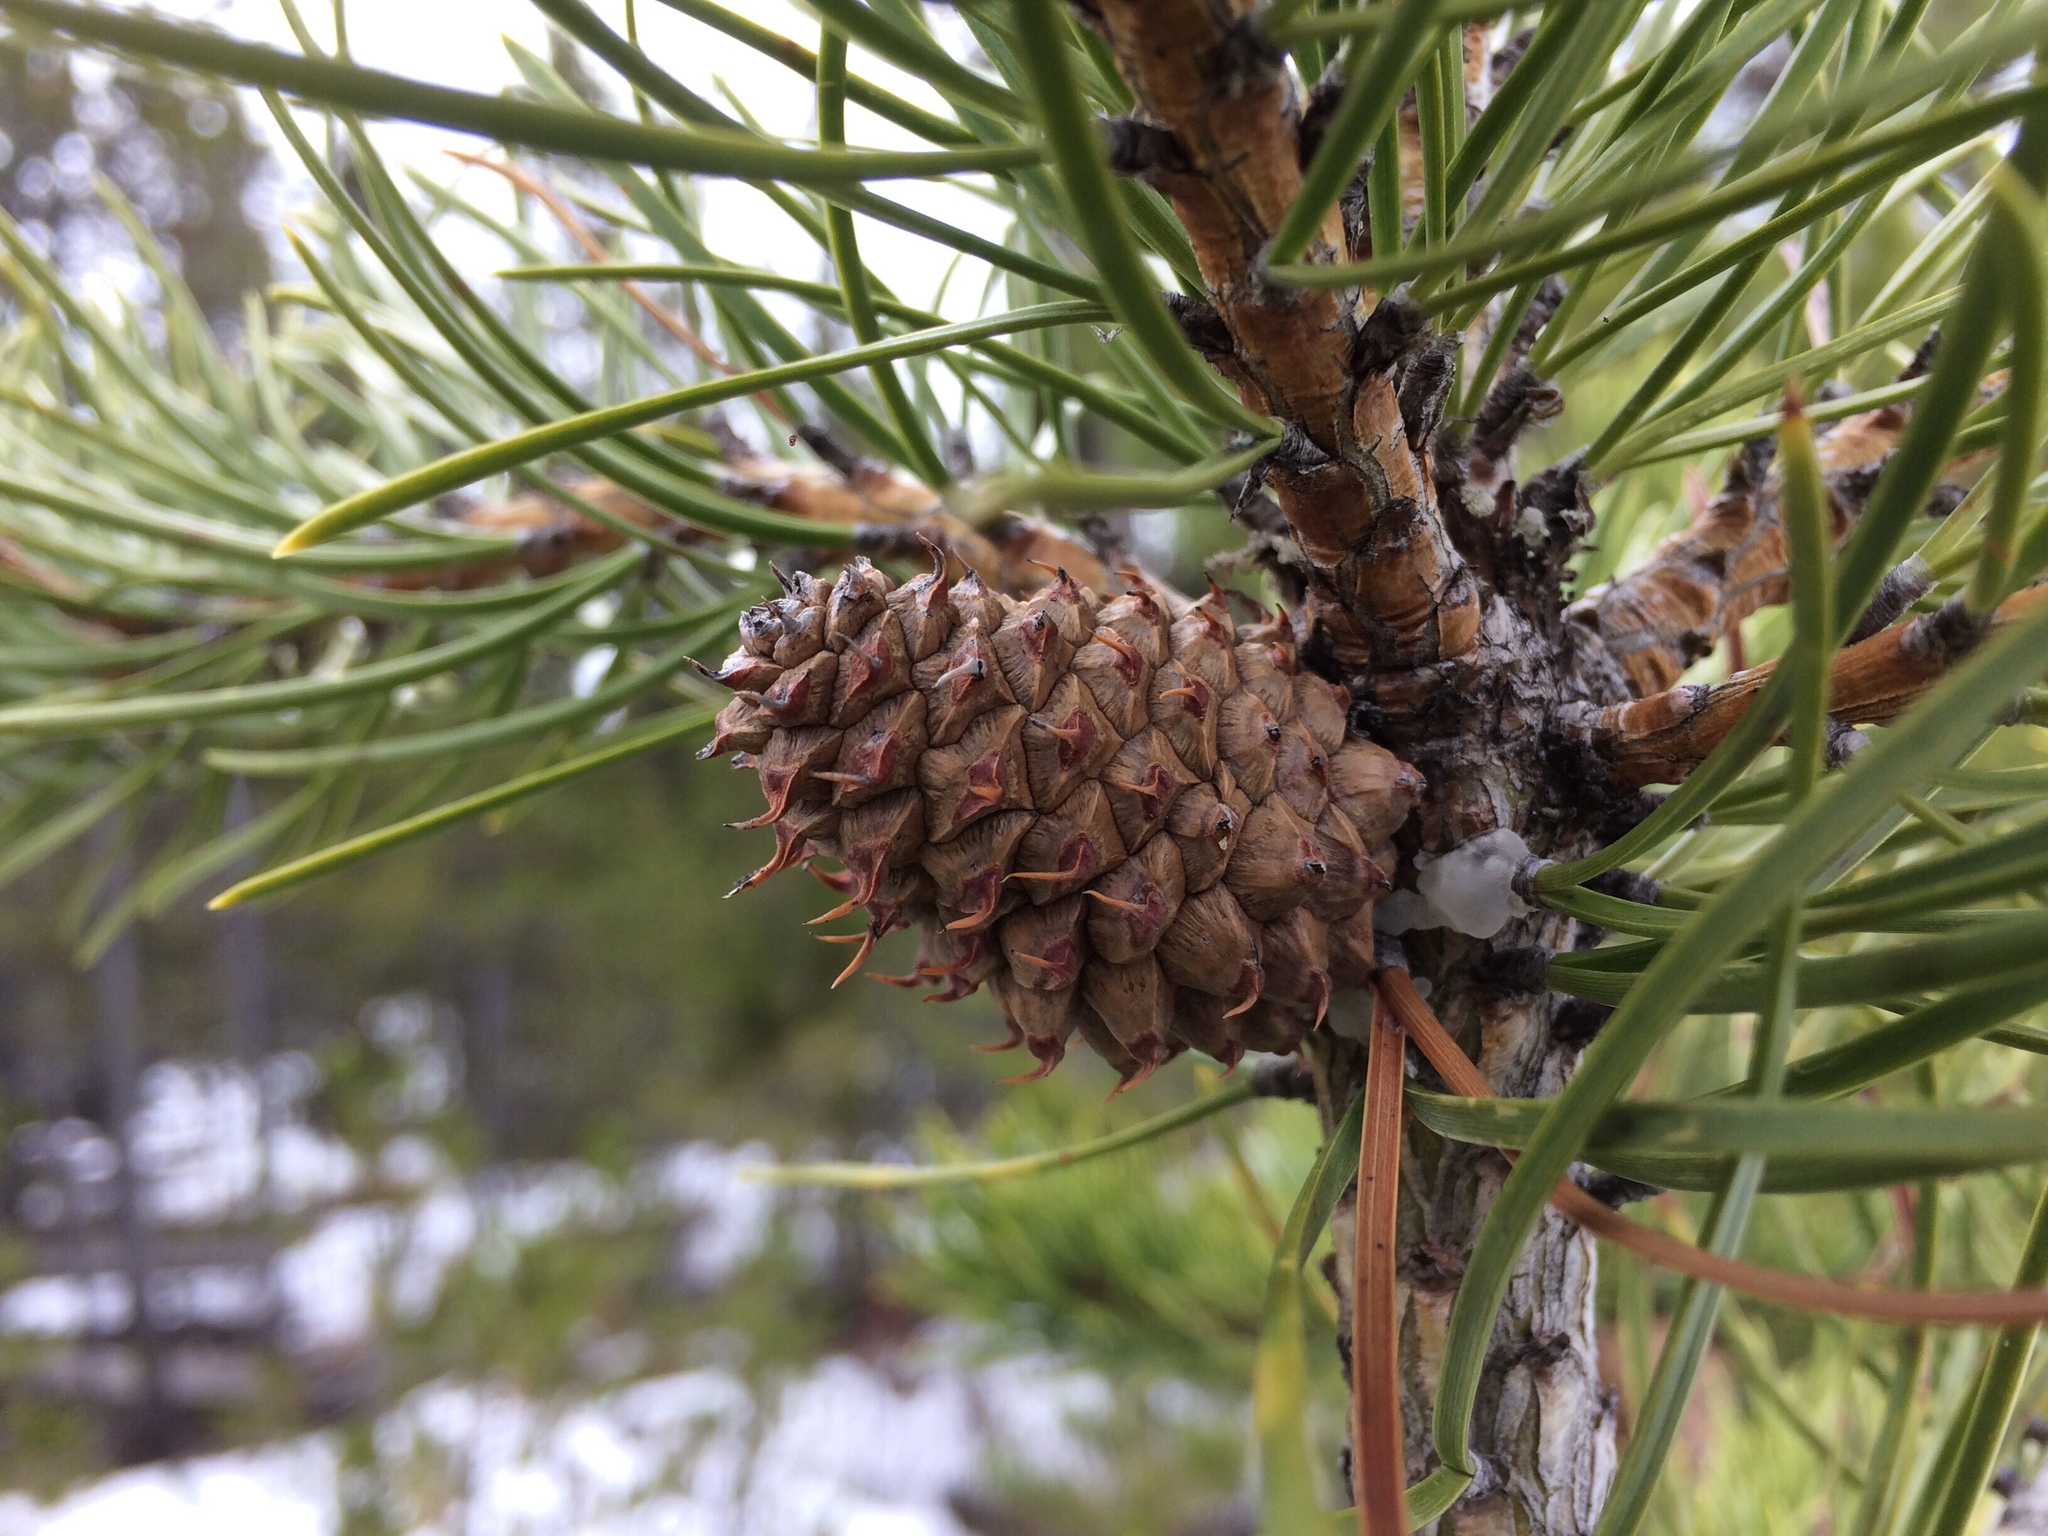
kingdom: Plantae
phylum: Tracheophyta
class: Pinopsida
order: Pinales
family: Pinaceae
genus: Pinus
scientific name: Pinus contorta
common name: Lodgepole pine
